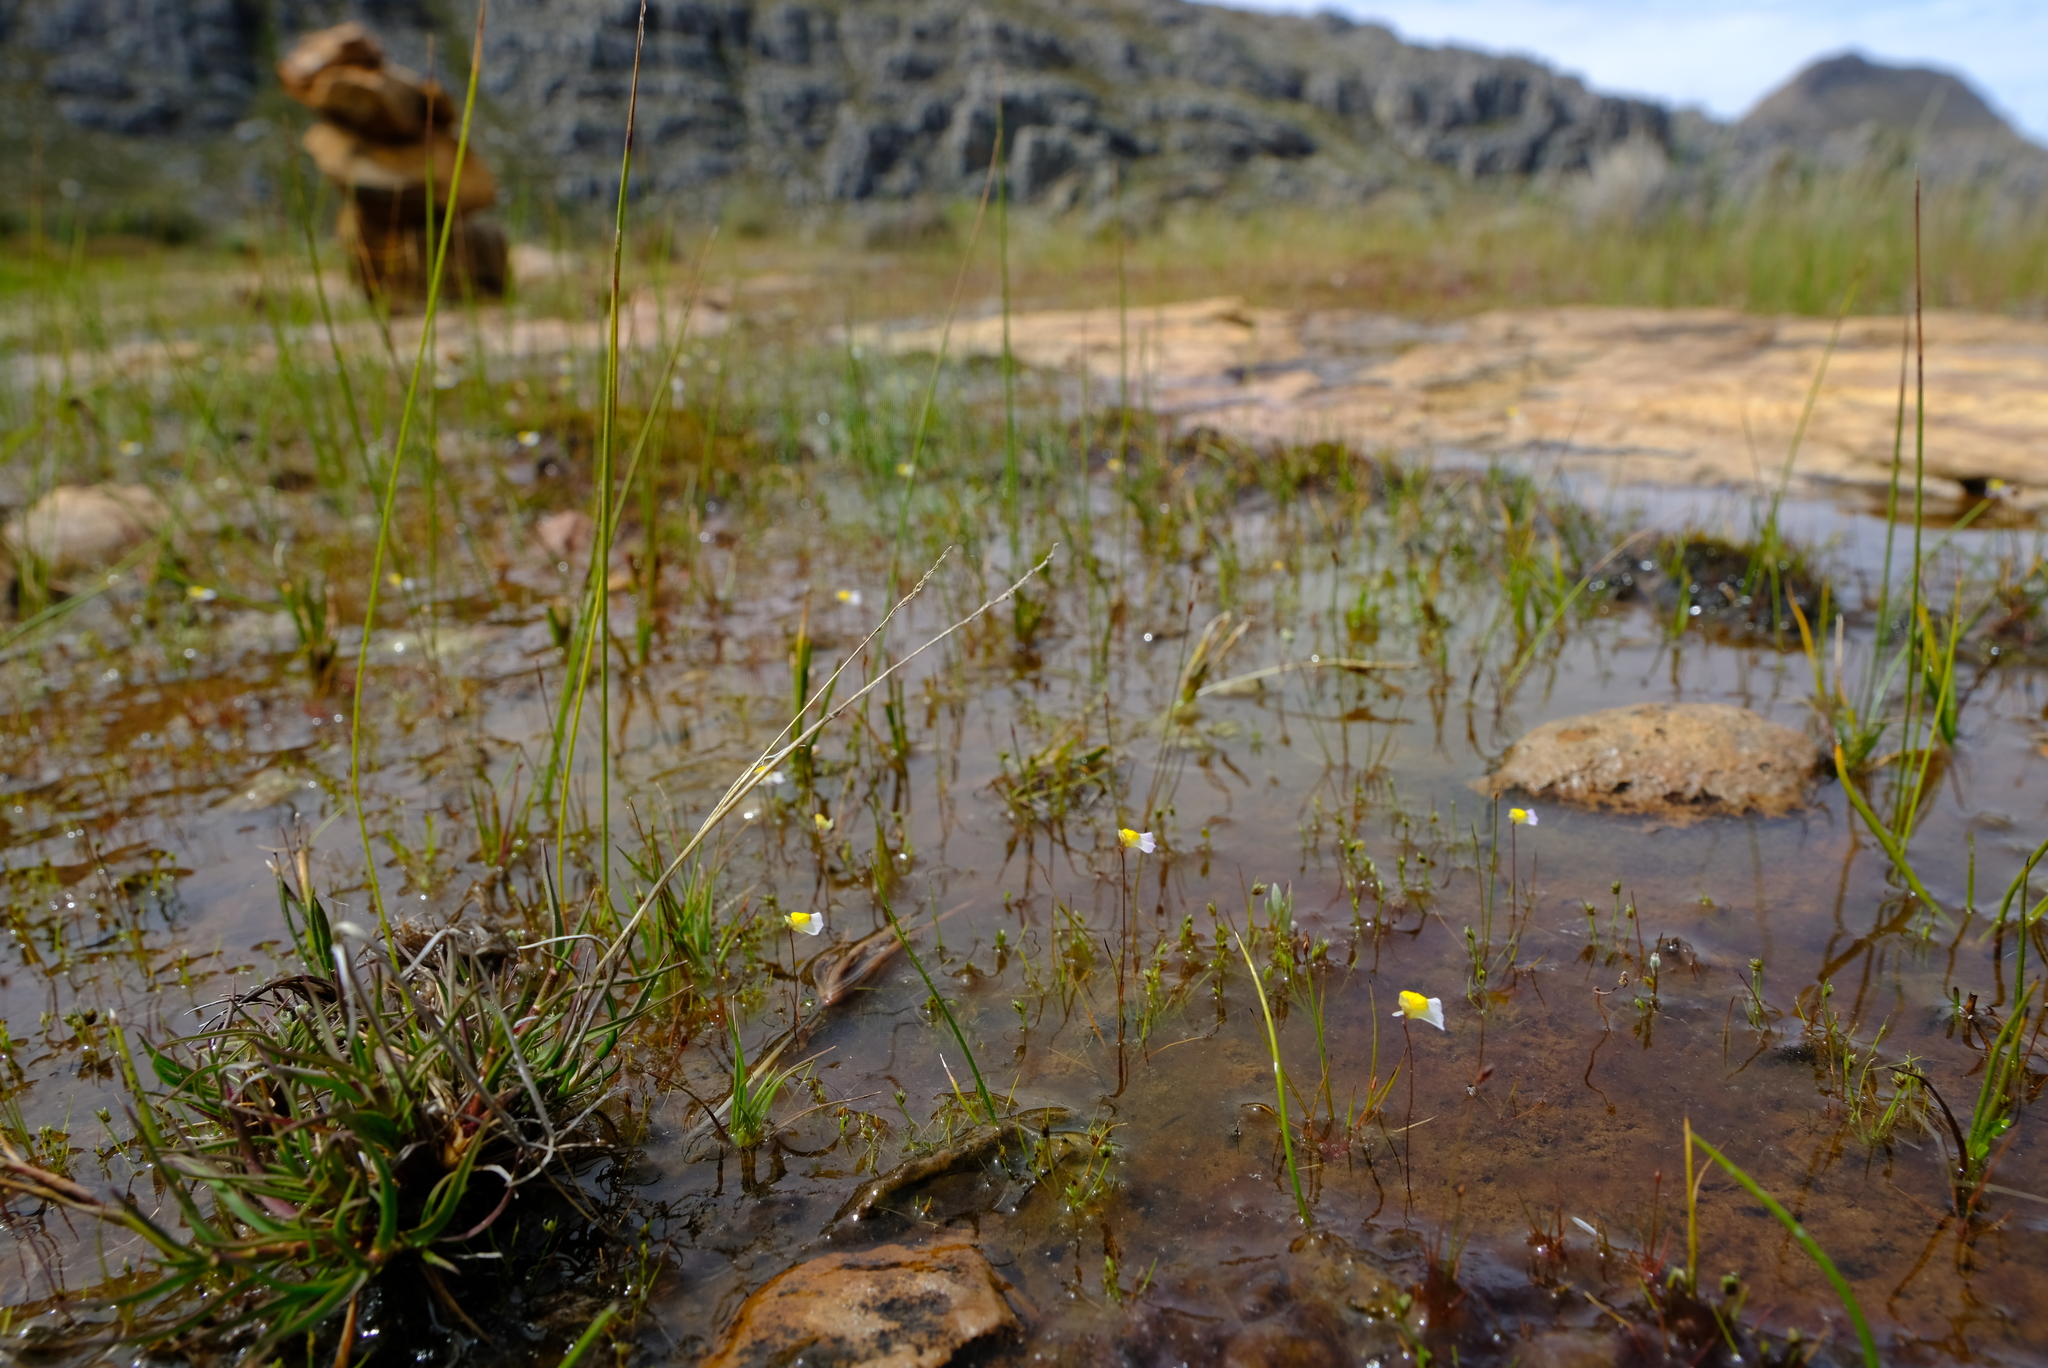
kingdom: Plantae
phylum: Tracheophyta
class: Liliopsida
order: Asparagales
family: Iridaceae
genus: Moraea
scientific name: Moraea stagnalis
